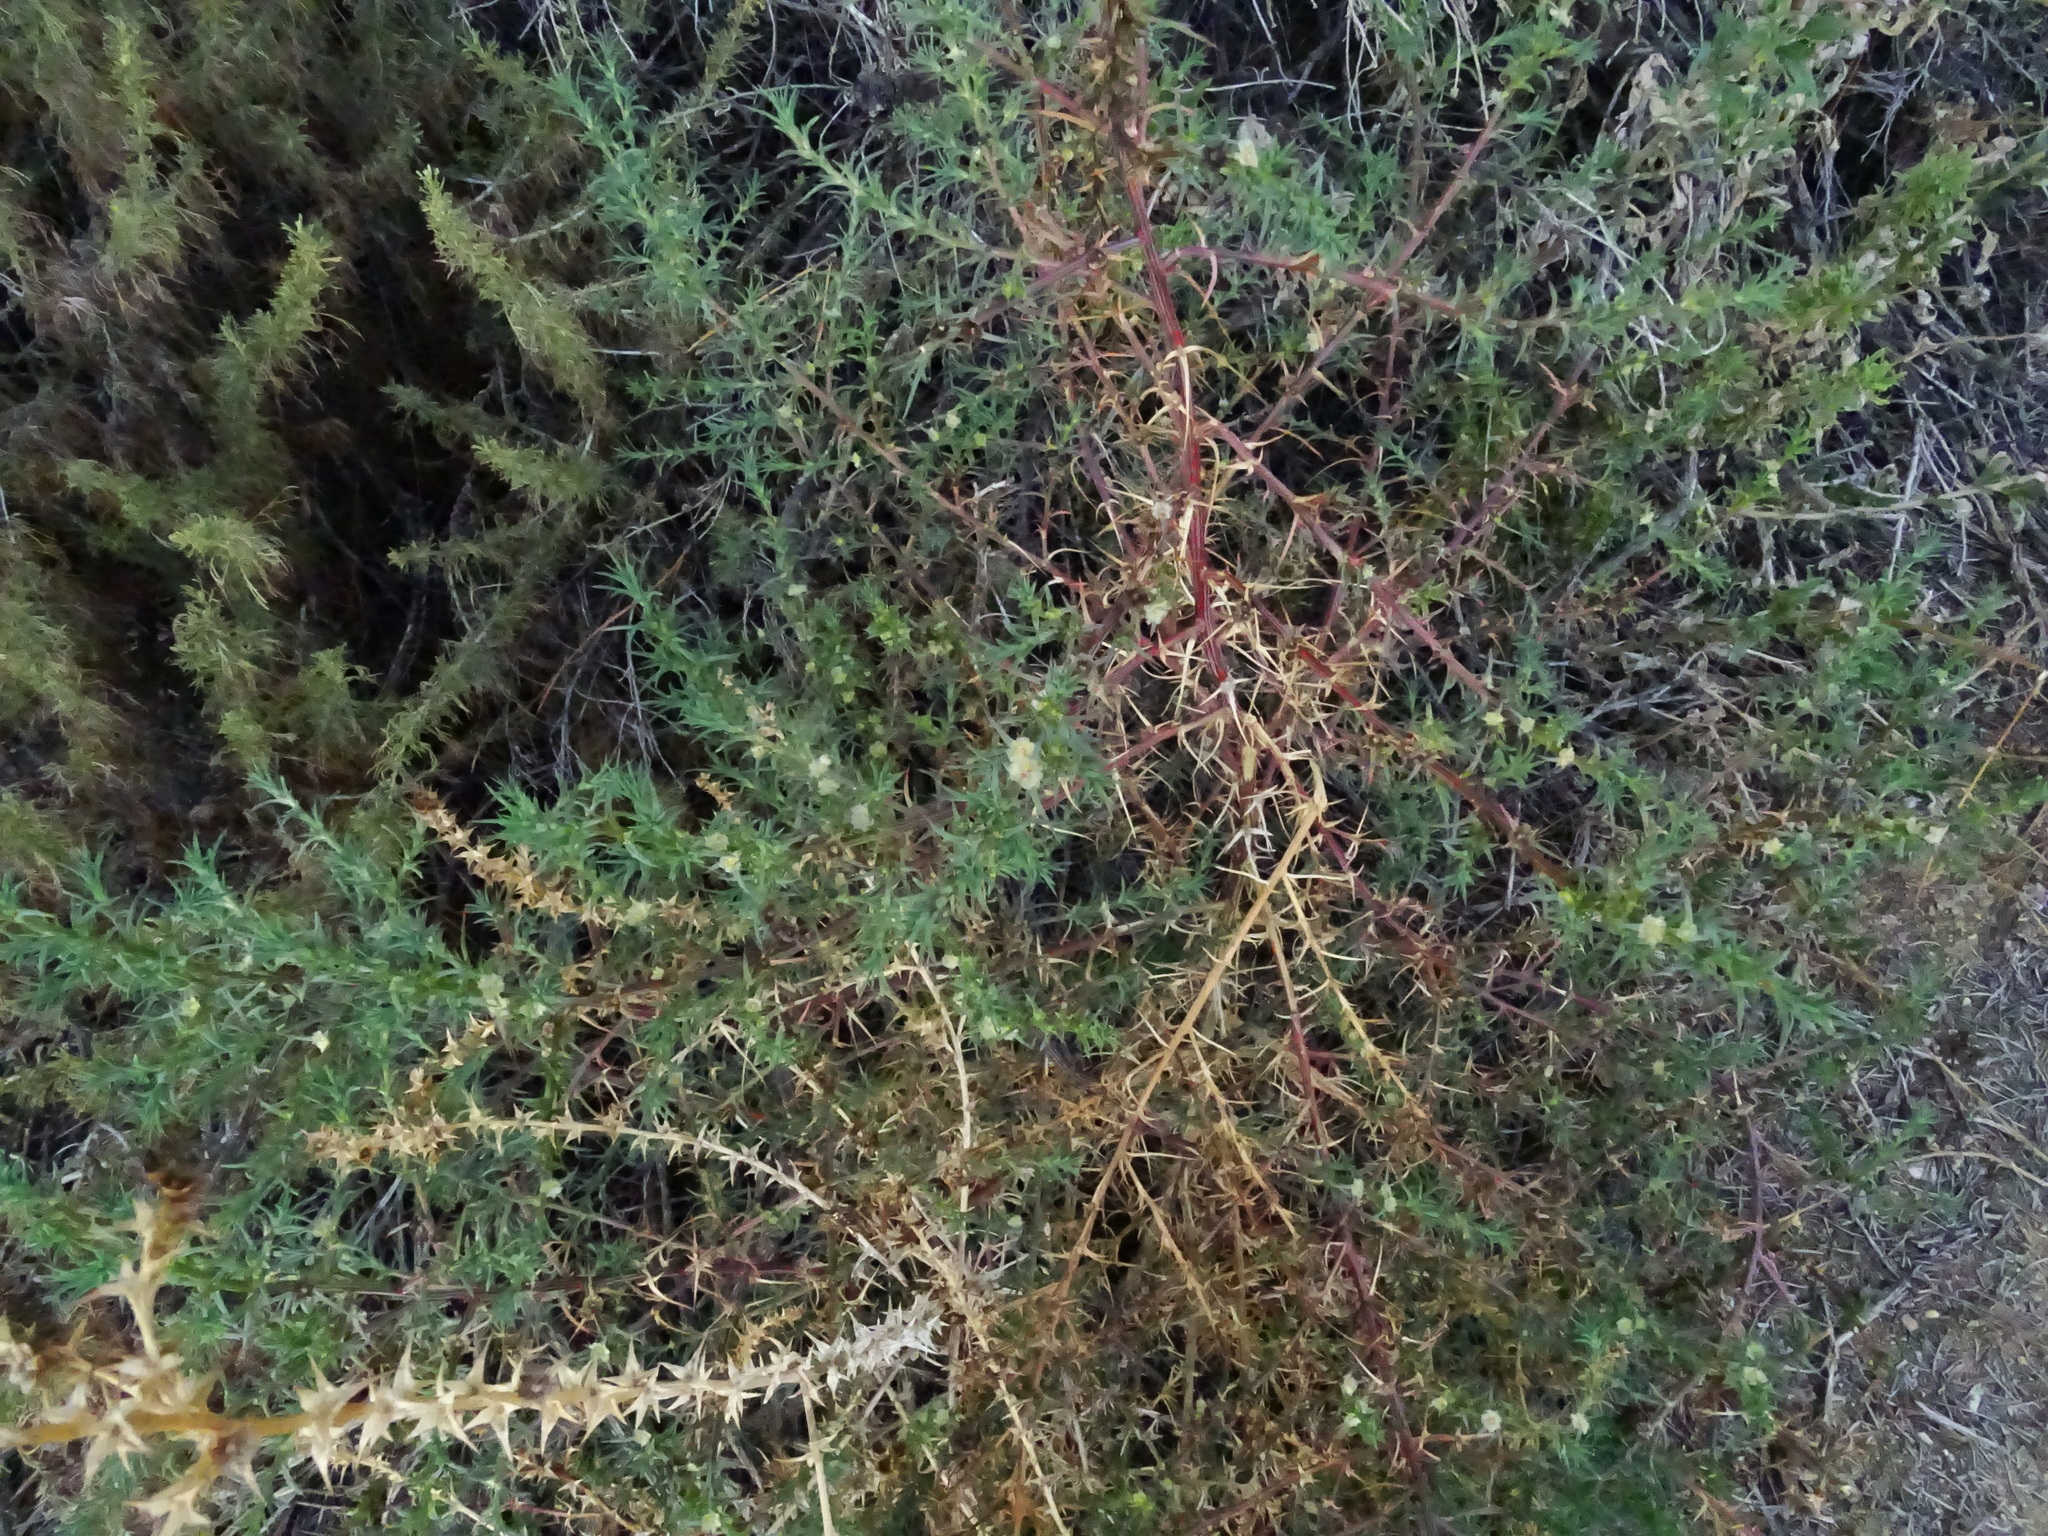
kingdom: Plantae
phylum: Tracheophyta
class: Magnoliopsida
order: Caryophyllales
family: Amaranthaceae
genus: Salsola
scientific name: Salsola
